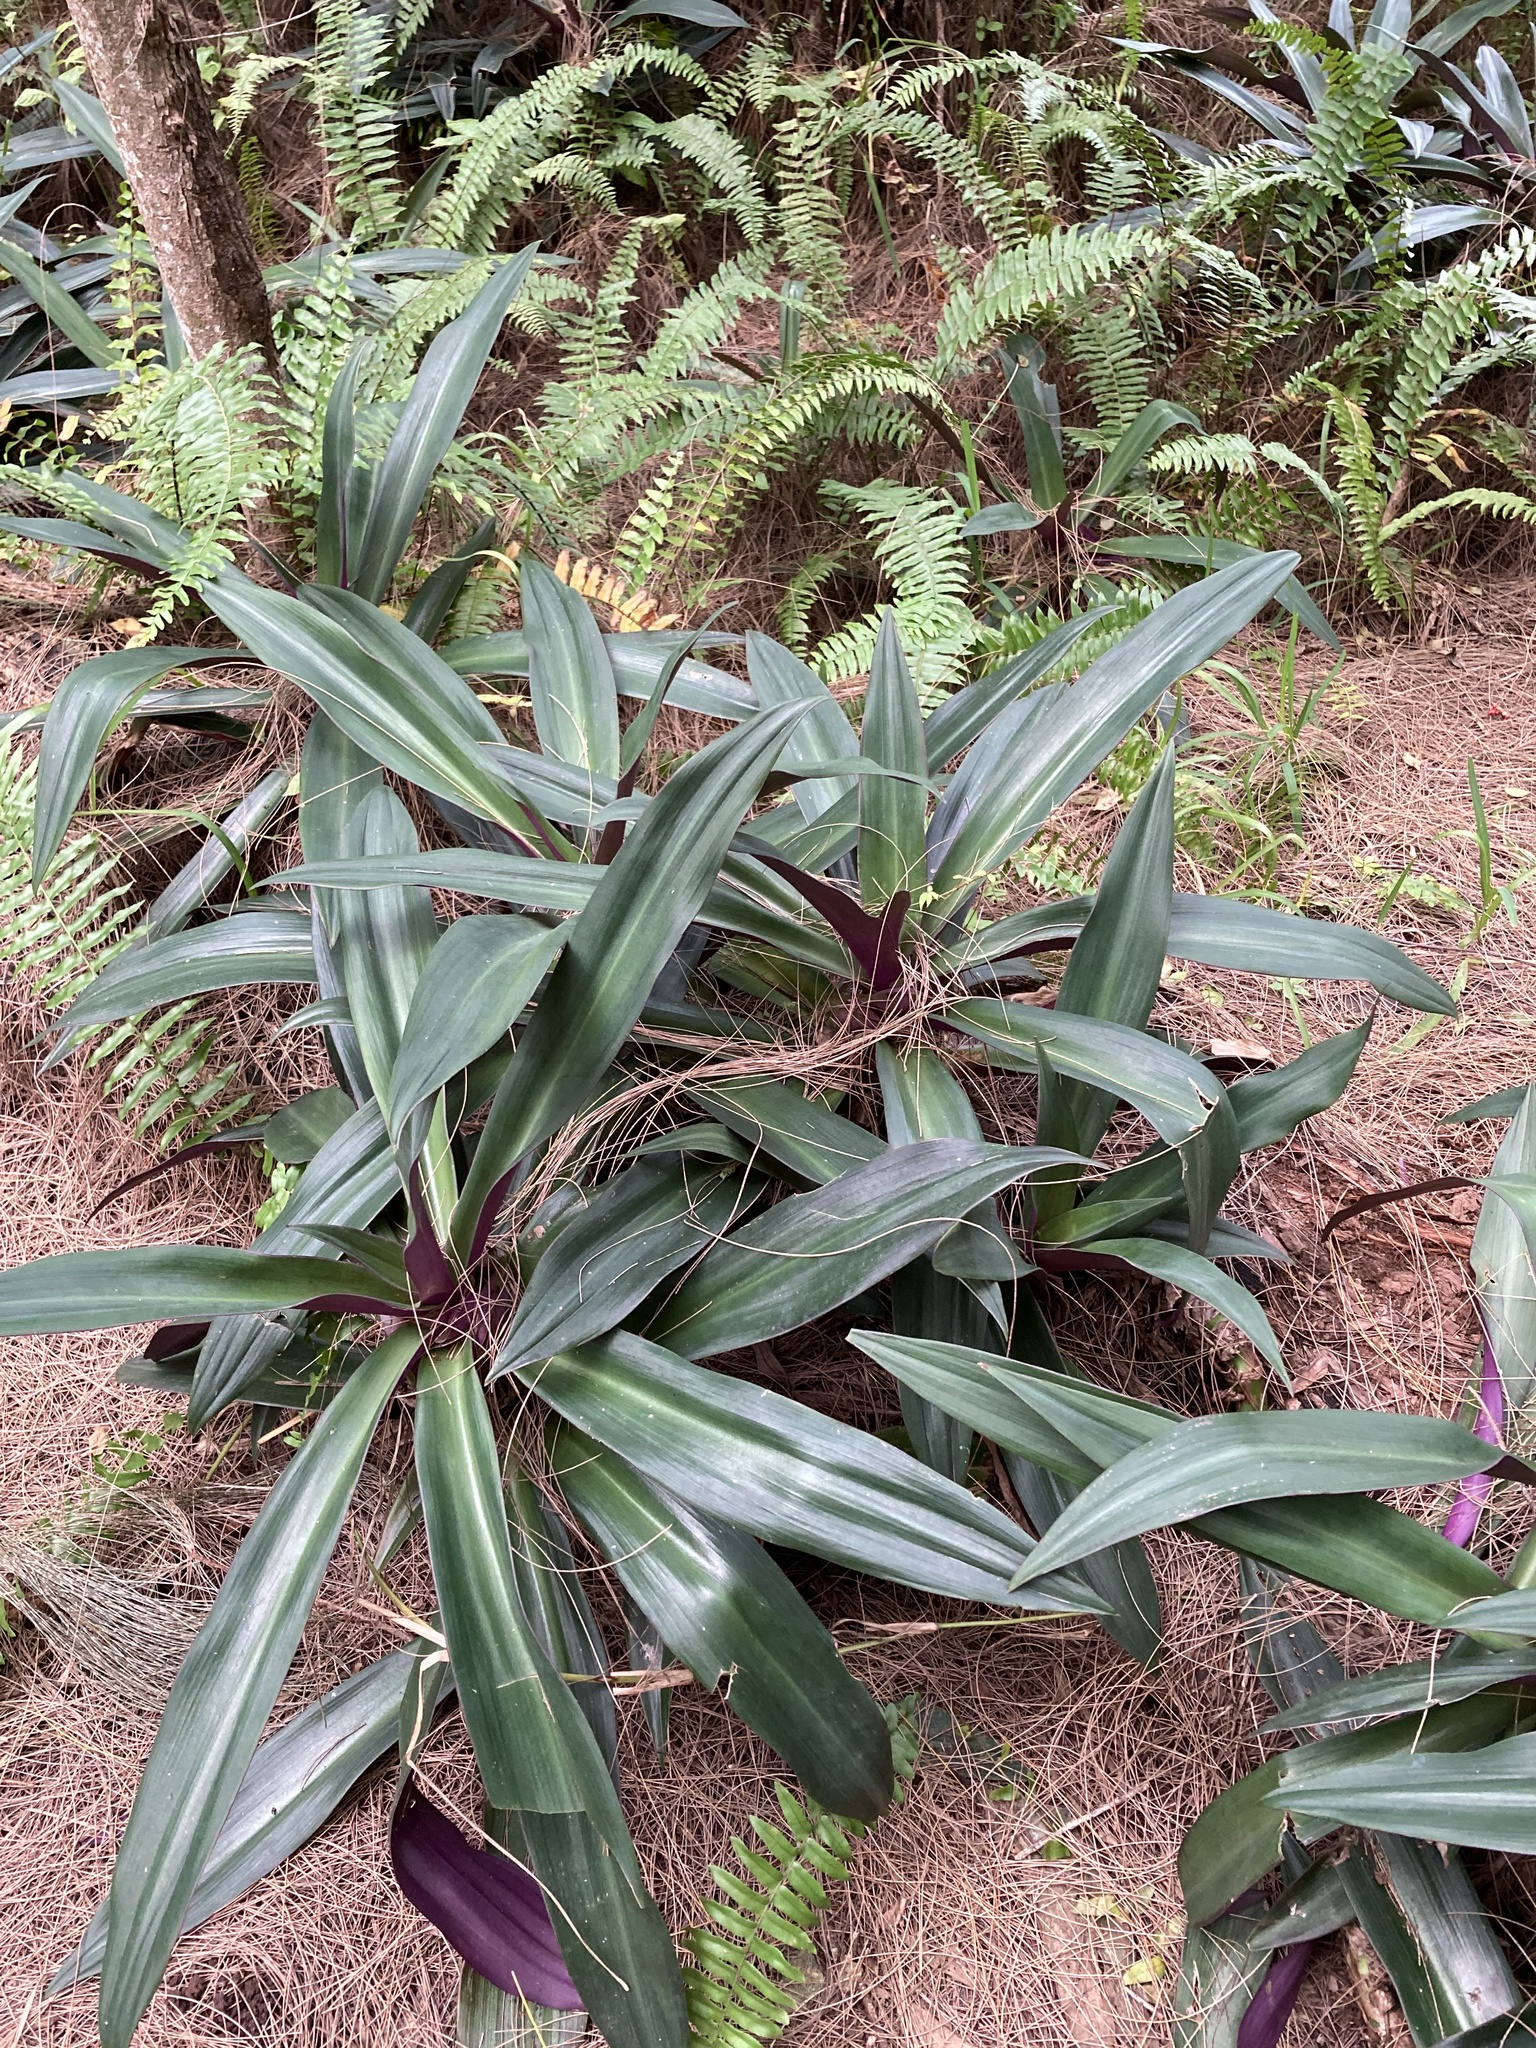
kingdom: Plantae
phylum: Tracheophyta
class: Liliopsida
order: Commelinales
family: Commelinaceae
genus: Tradescantia
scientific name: Tradescantia spathacea
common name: Boatlily
